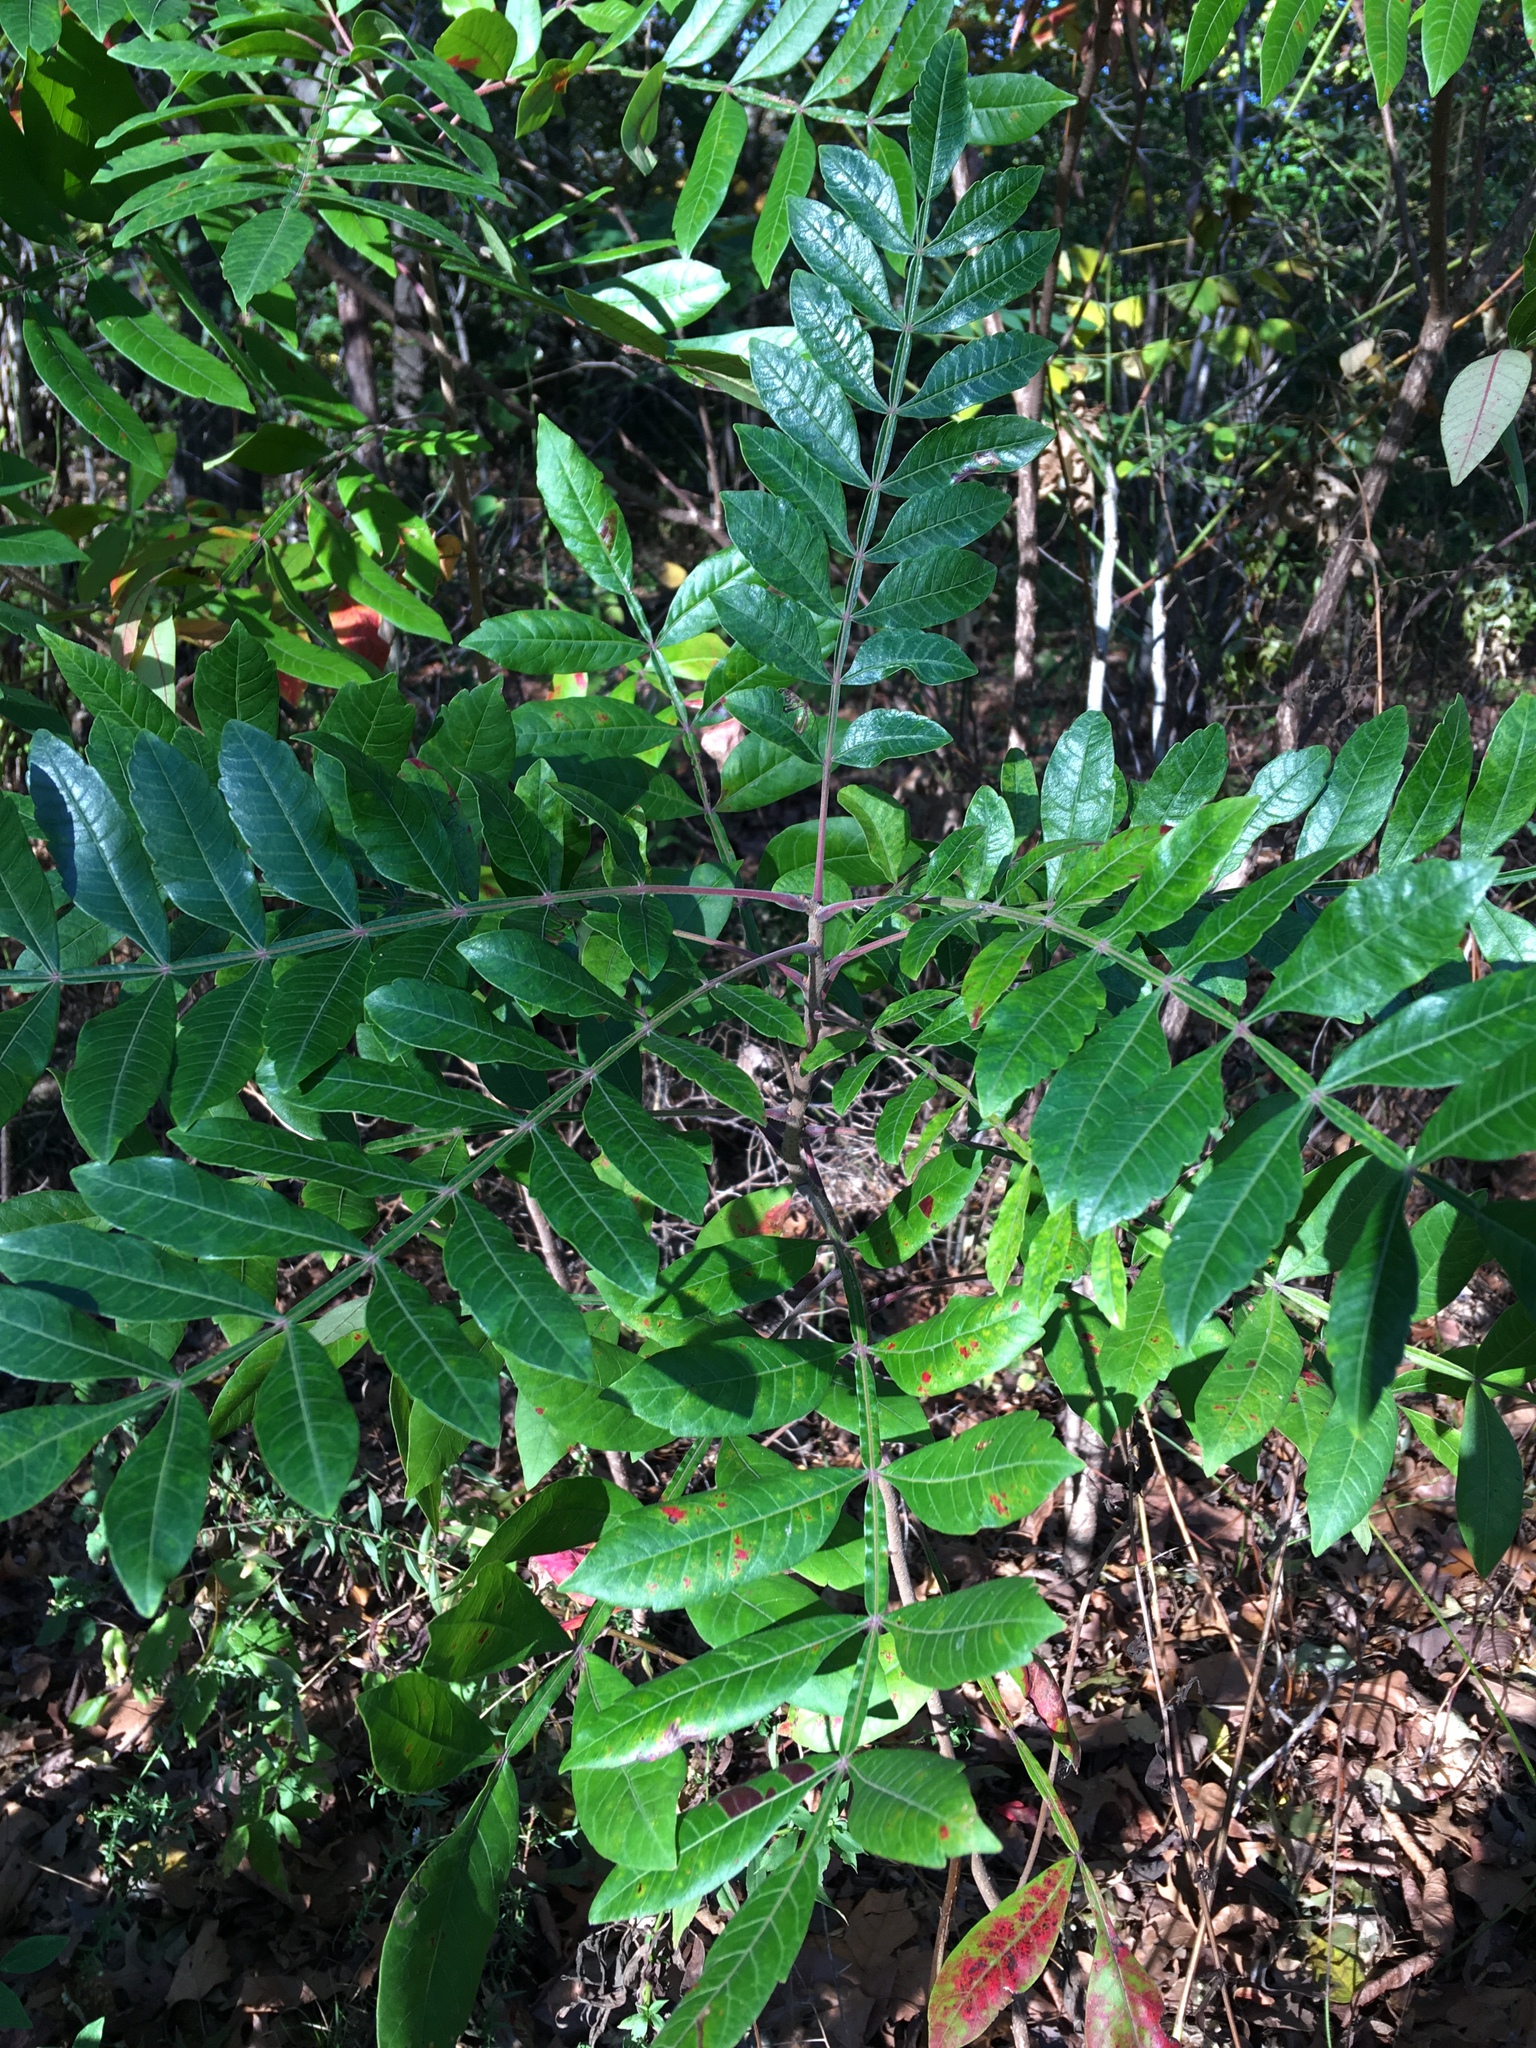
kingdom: Plantae
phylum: Tracheophyta
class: Magnoliopsida
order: Sapindales
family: Anacardiaceae
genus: Rhus
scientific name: Rhus copallina
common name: Shining sumac
